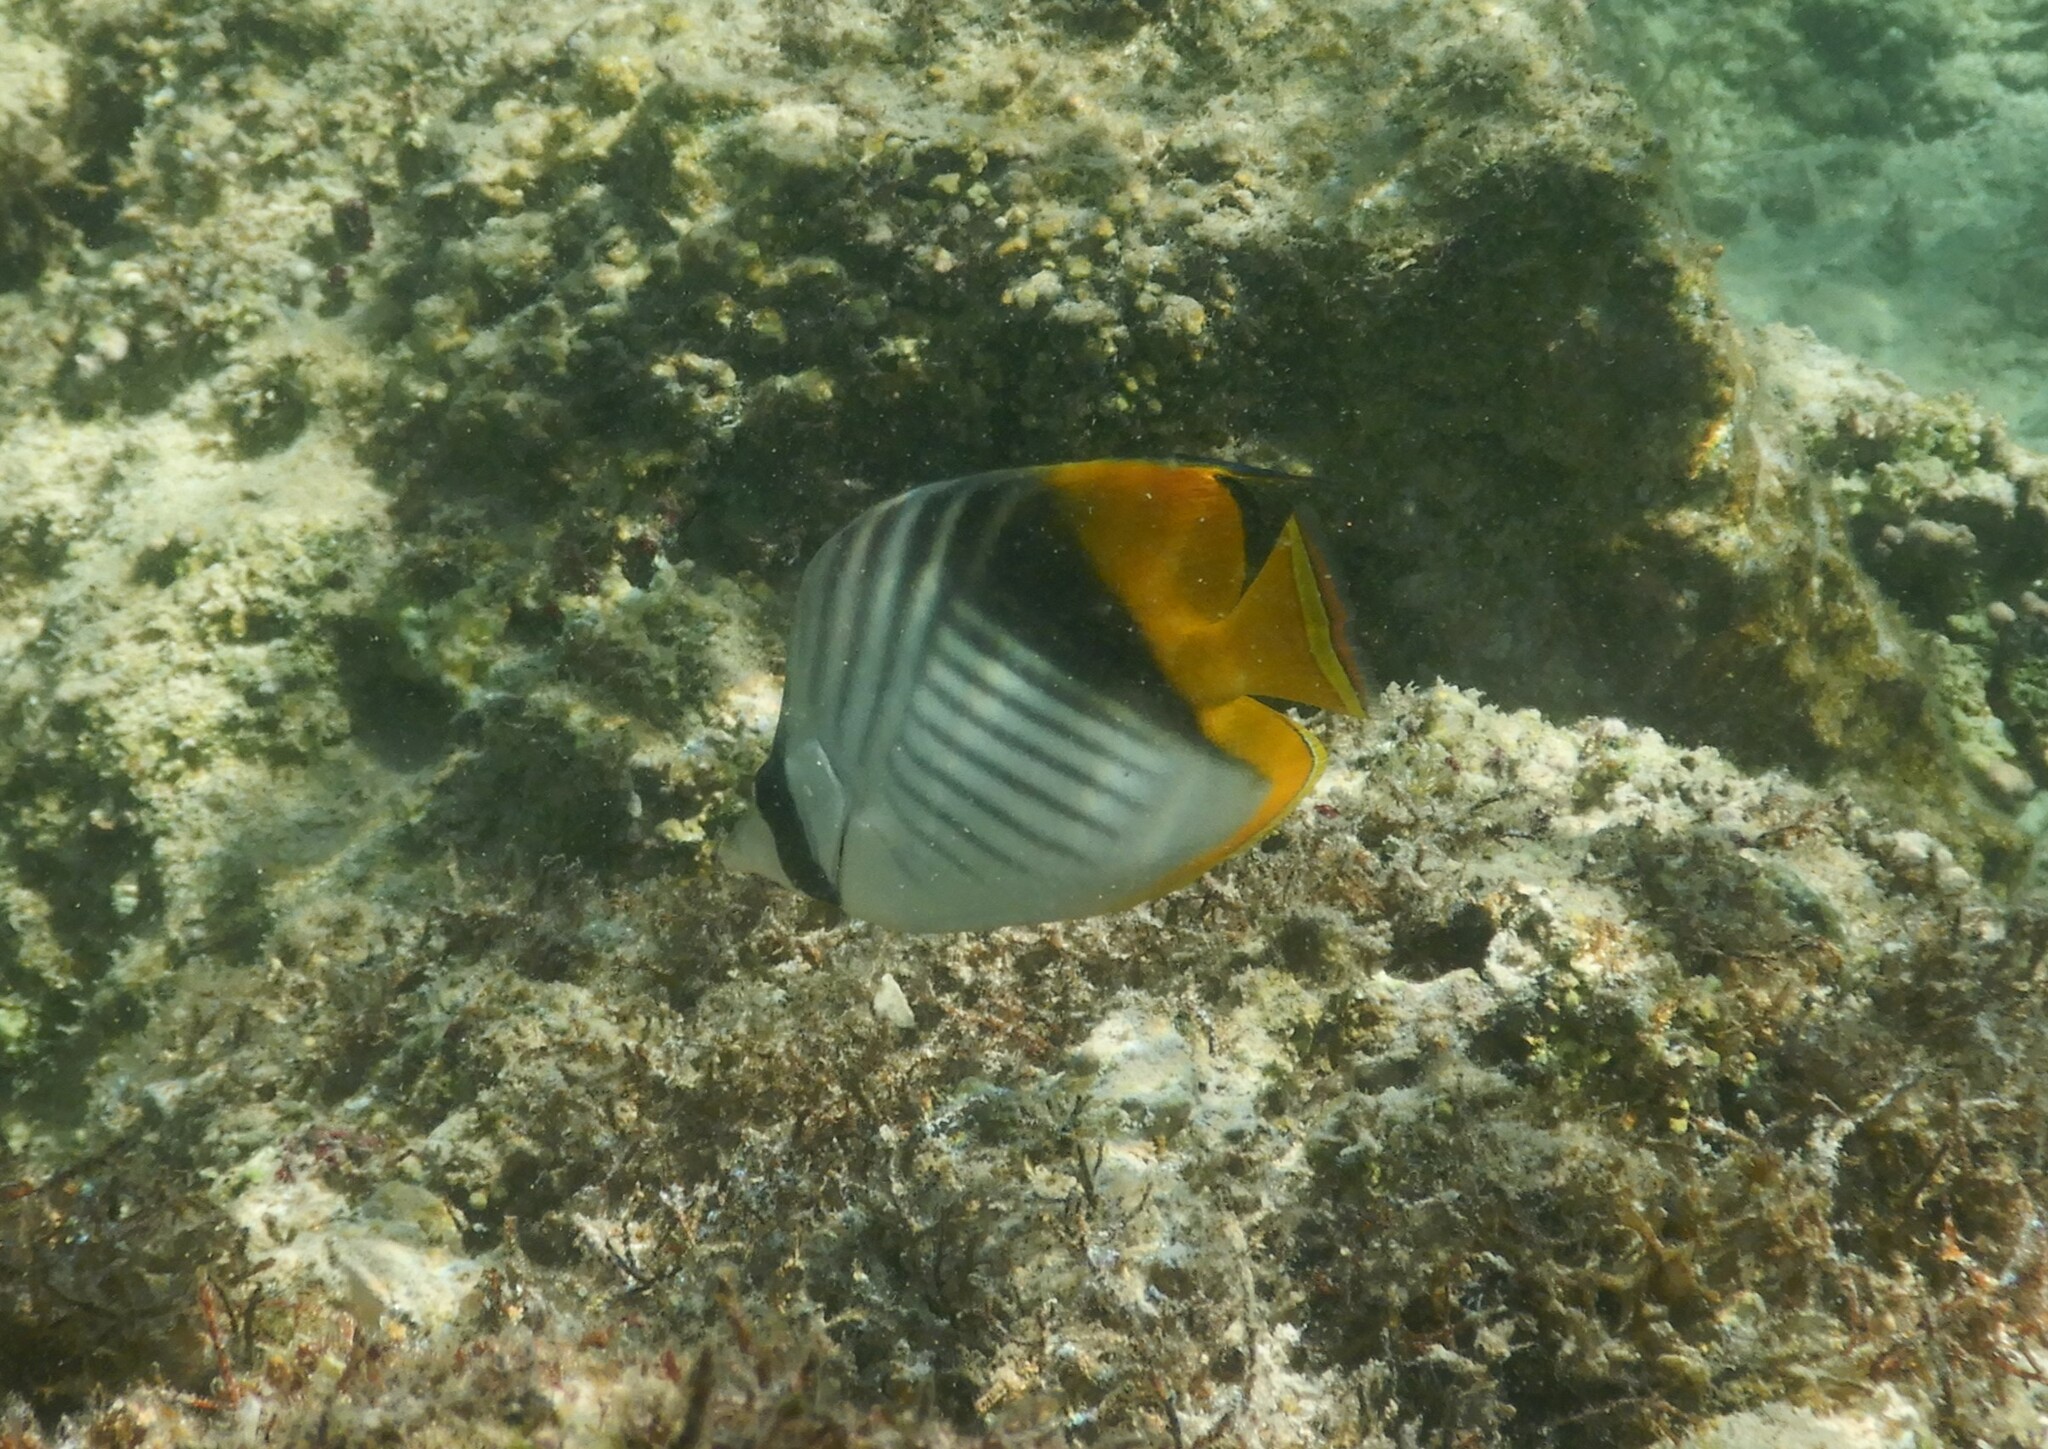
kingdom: Animalia
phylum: Chordata
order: Perciformes
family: Chaetodontidae
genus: Chaetodon
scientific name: Chaetodon auriga
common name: Threadfin butterflyfish
